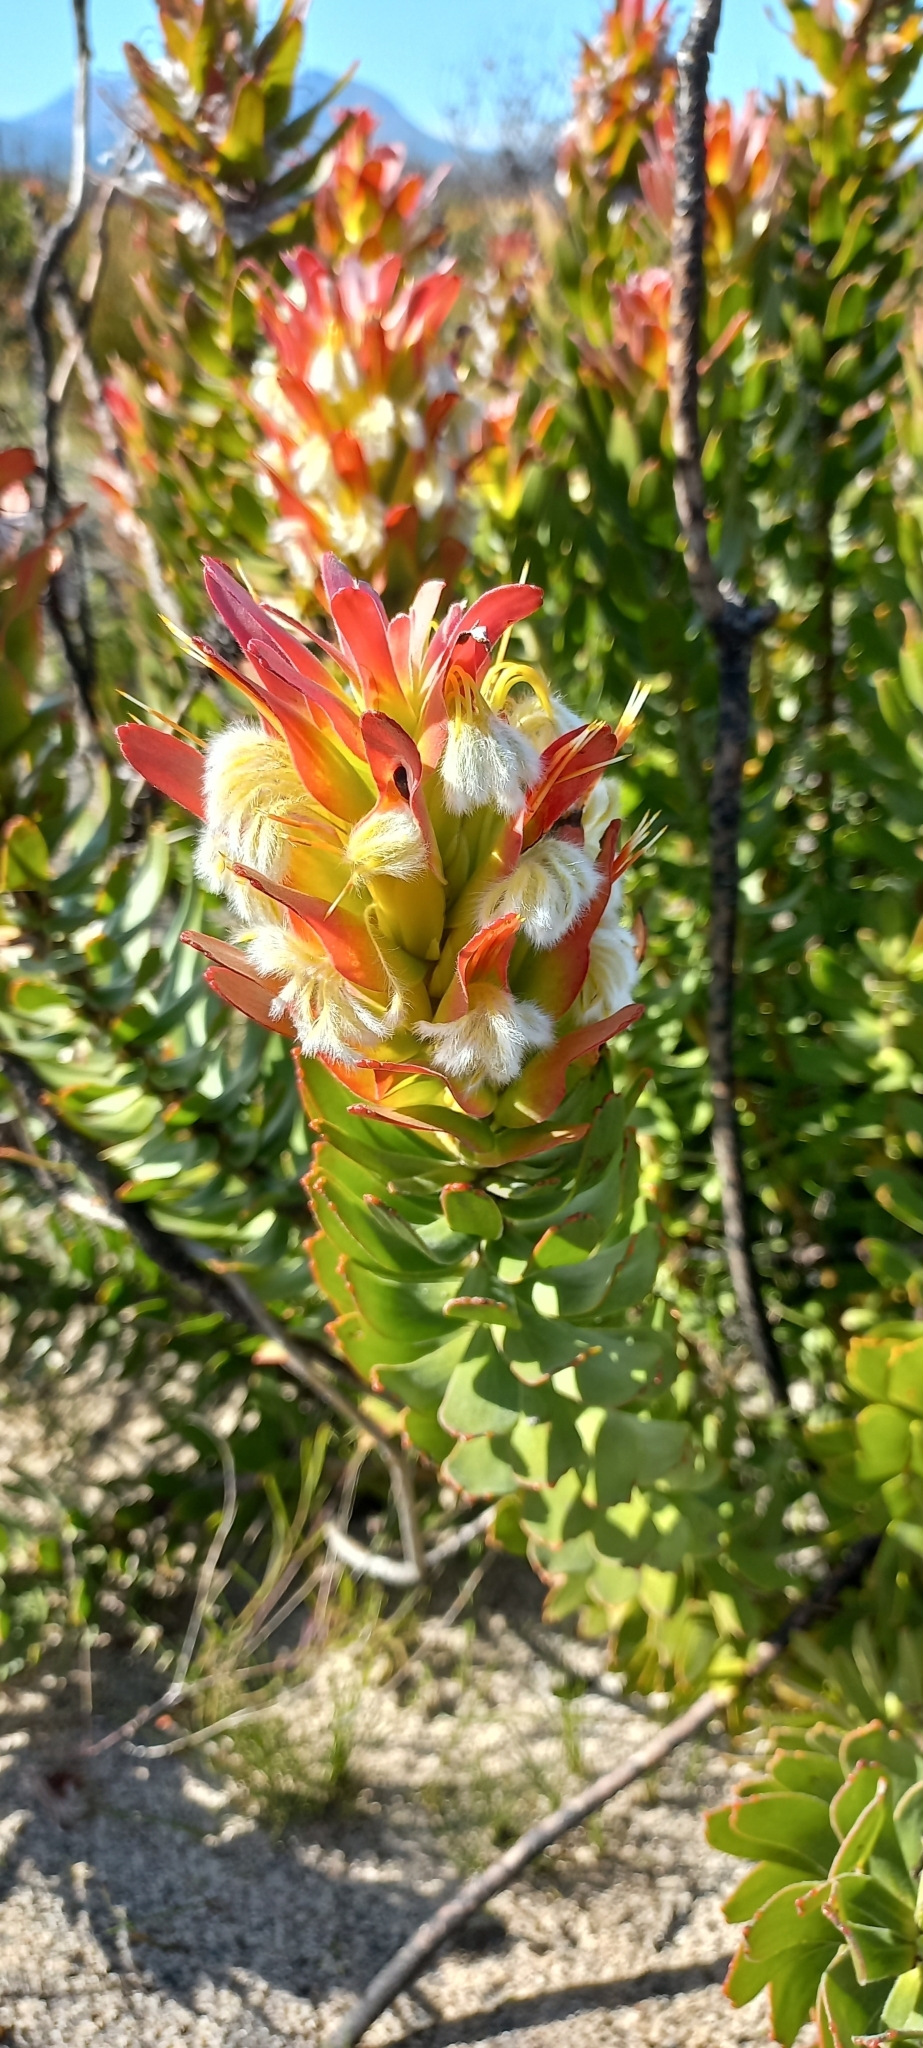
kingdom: Plantae
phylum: Tracheophyta
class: Magnoliopsida
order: Proteales
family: Proteaceae
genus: Mimetes
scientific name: Mimetes cucullatus
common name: Common pagoda
